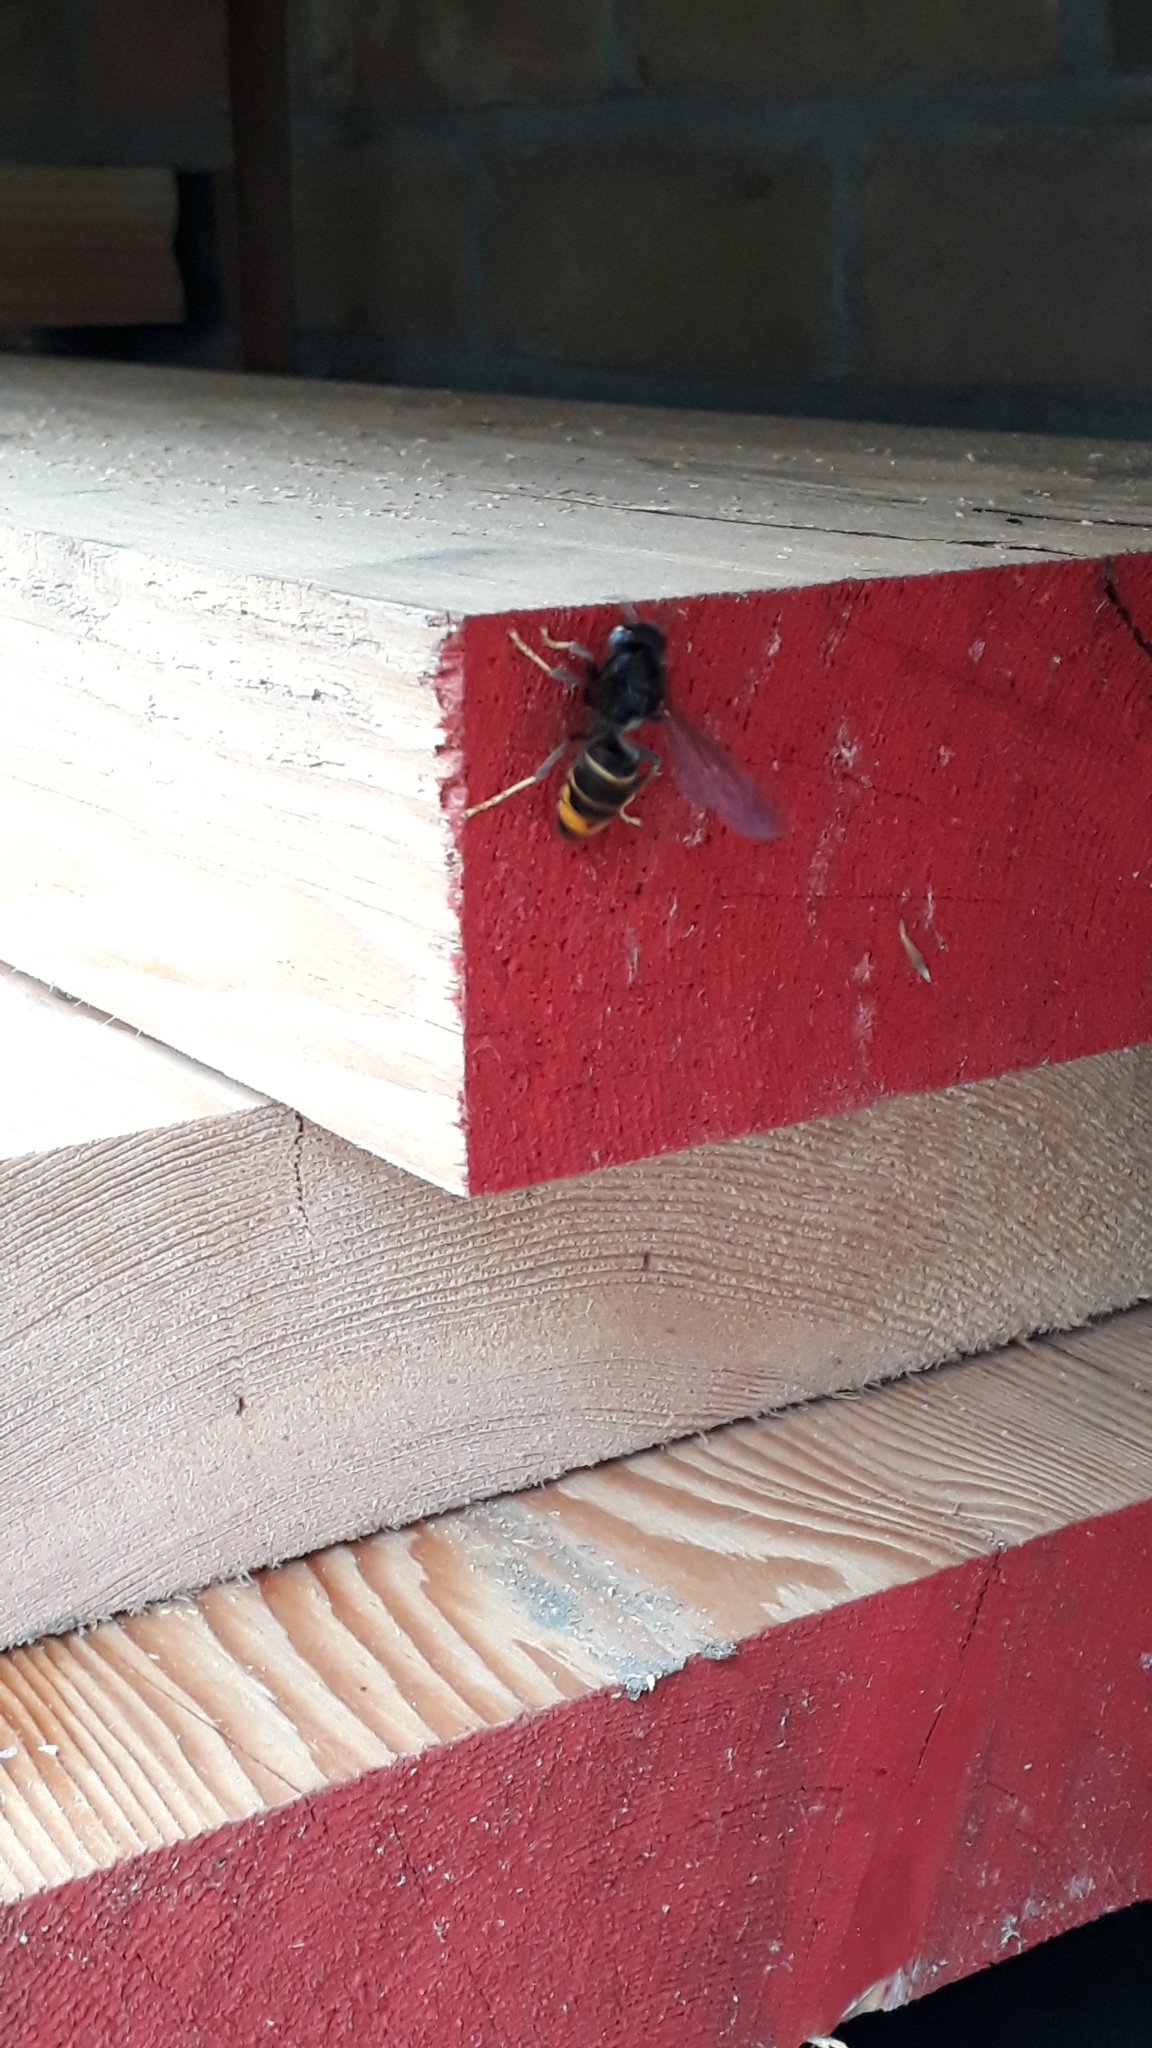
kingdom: Animalia
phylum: Arthropoda
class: Insecta
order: Hymenoptera
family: Vespidae
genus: Vespa
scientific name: Vespa velutina
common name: Asian hornet
